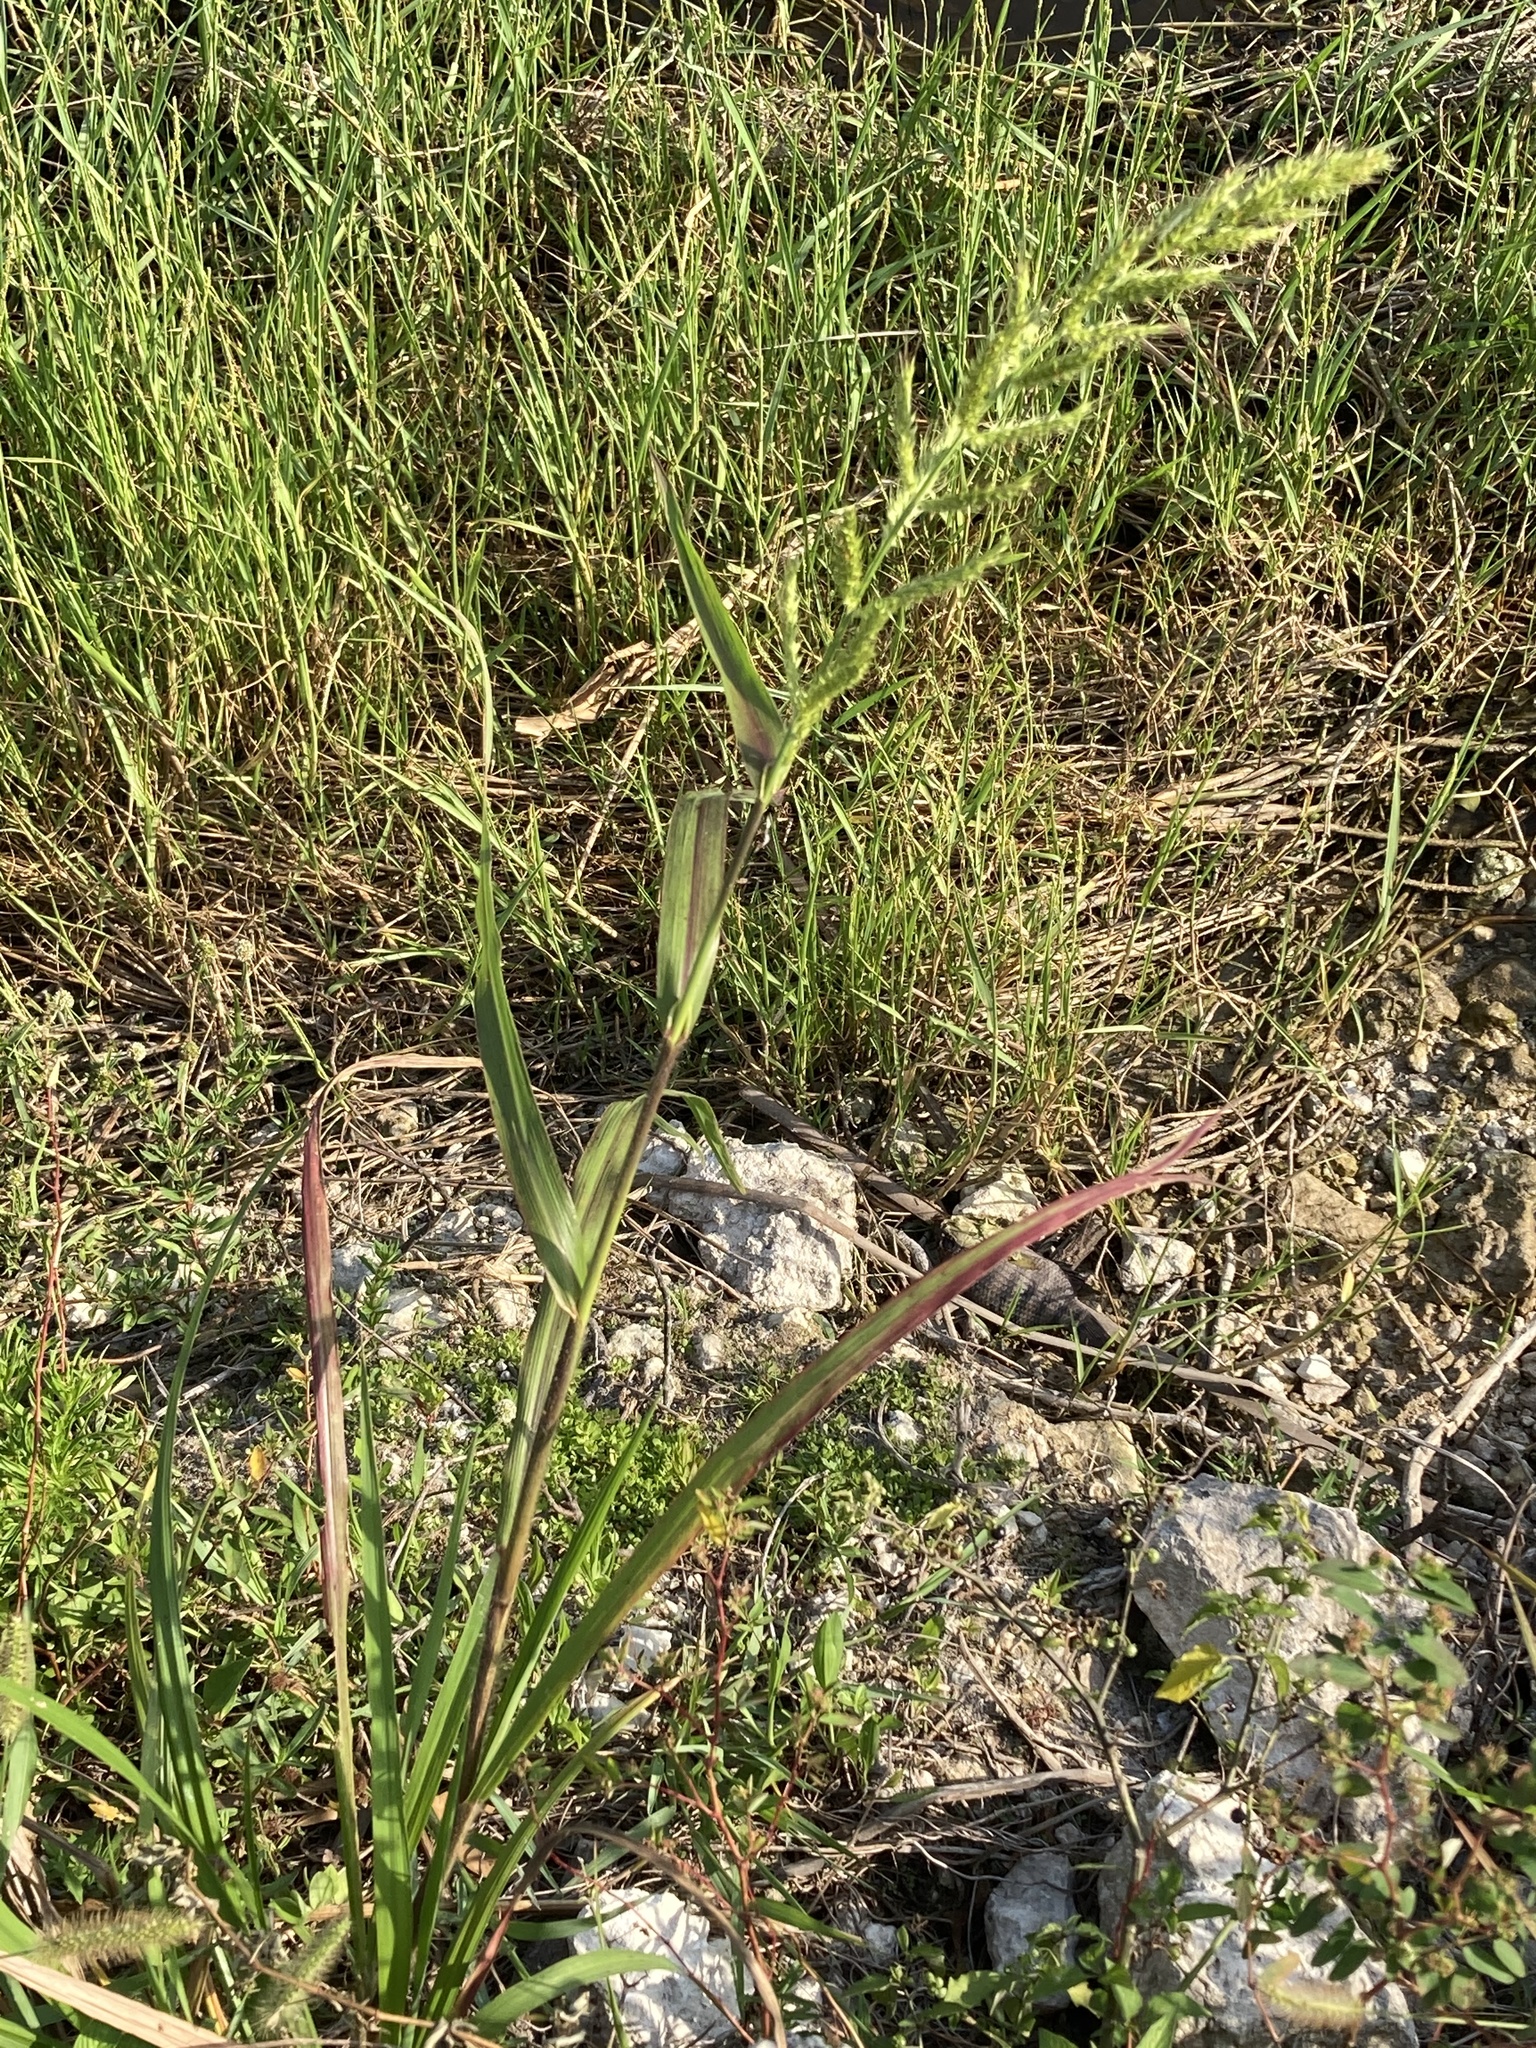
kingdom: Plantae
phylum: Tracheophyta
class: Liliopsida
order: Poales
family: Poaceae
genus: Echinochloa
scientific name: Echinochloa walteri
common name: Coast barnyard grass
